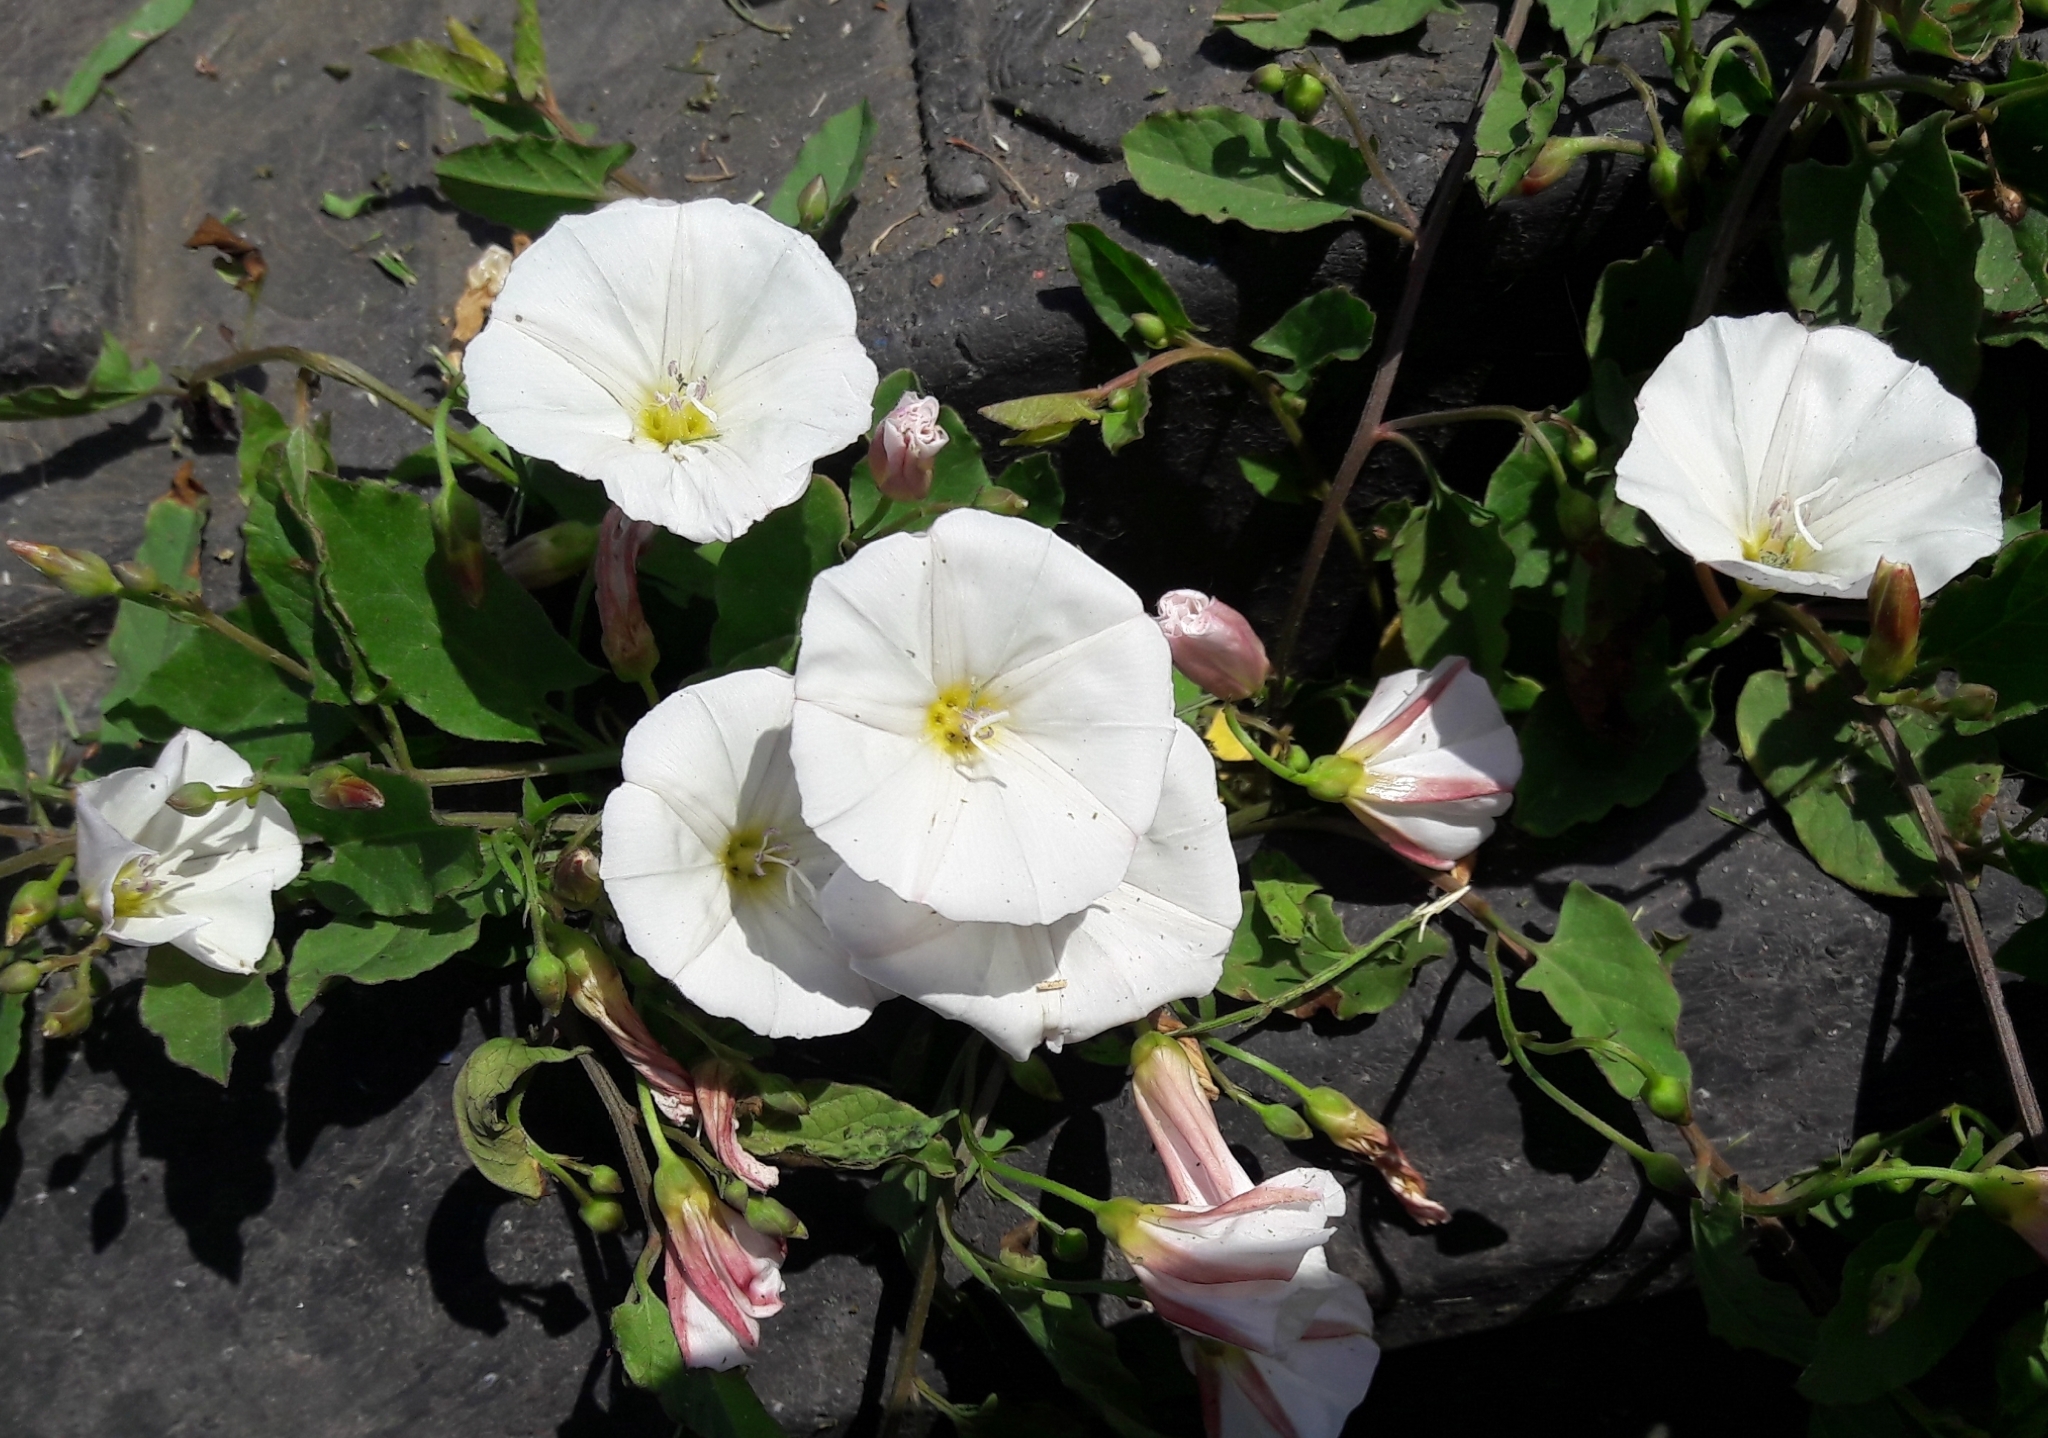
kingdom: Plantae
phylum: Tracheophyta
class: Magnoliopsida
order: Solanales
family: Convolvulaceae
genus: Convolvulus
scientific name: Convolvulus arvensis
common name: Field bindweed
